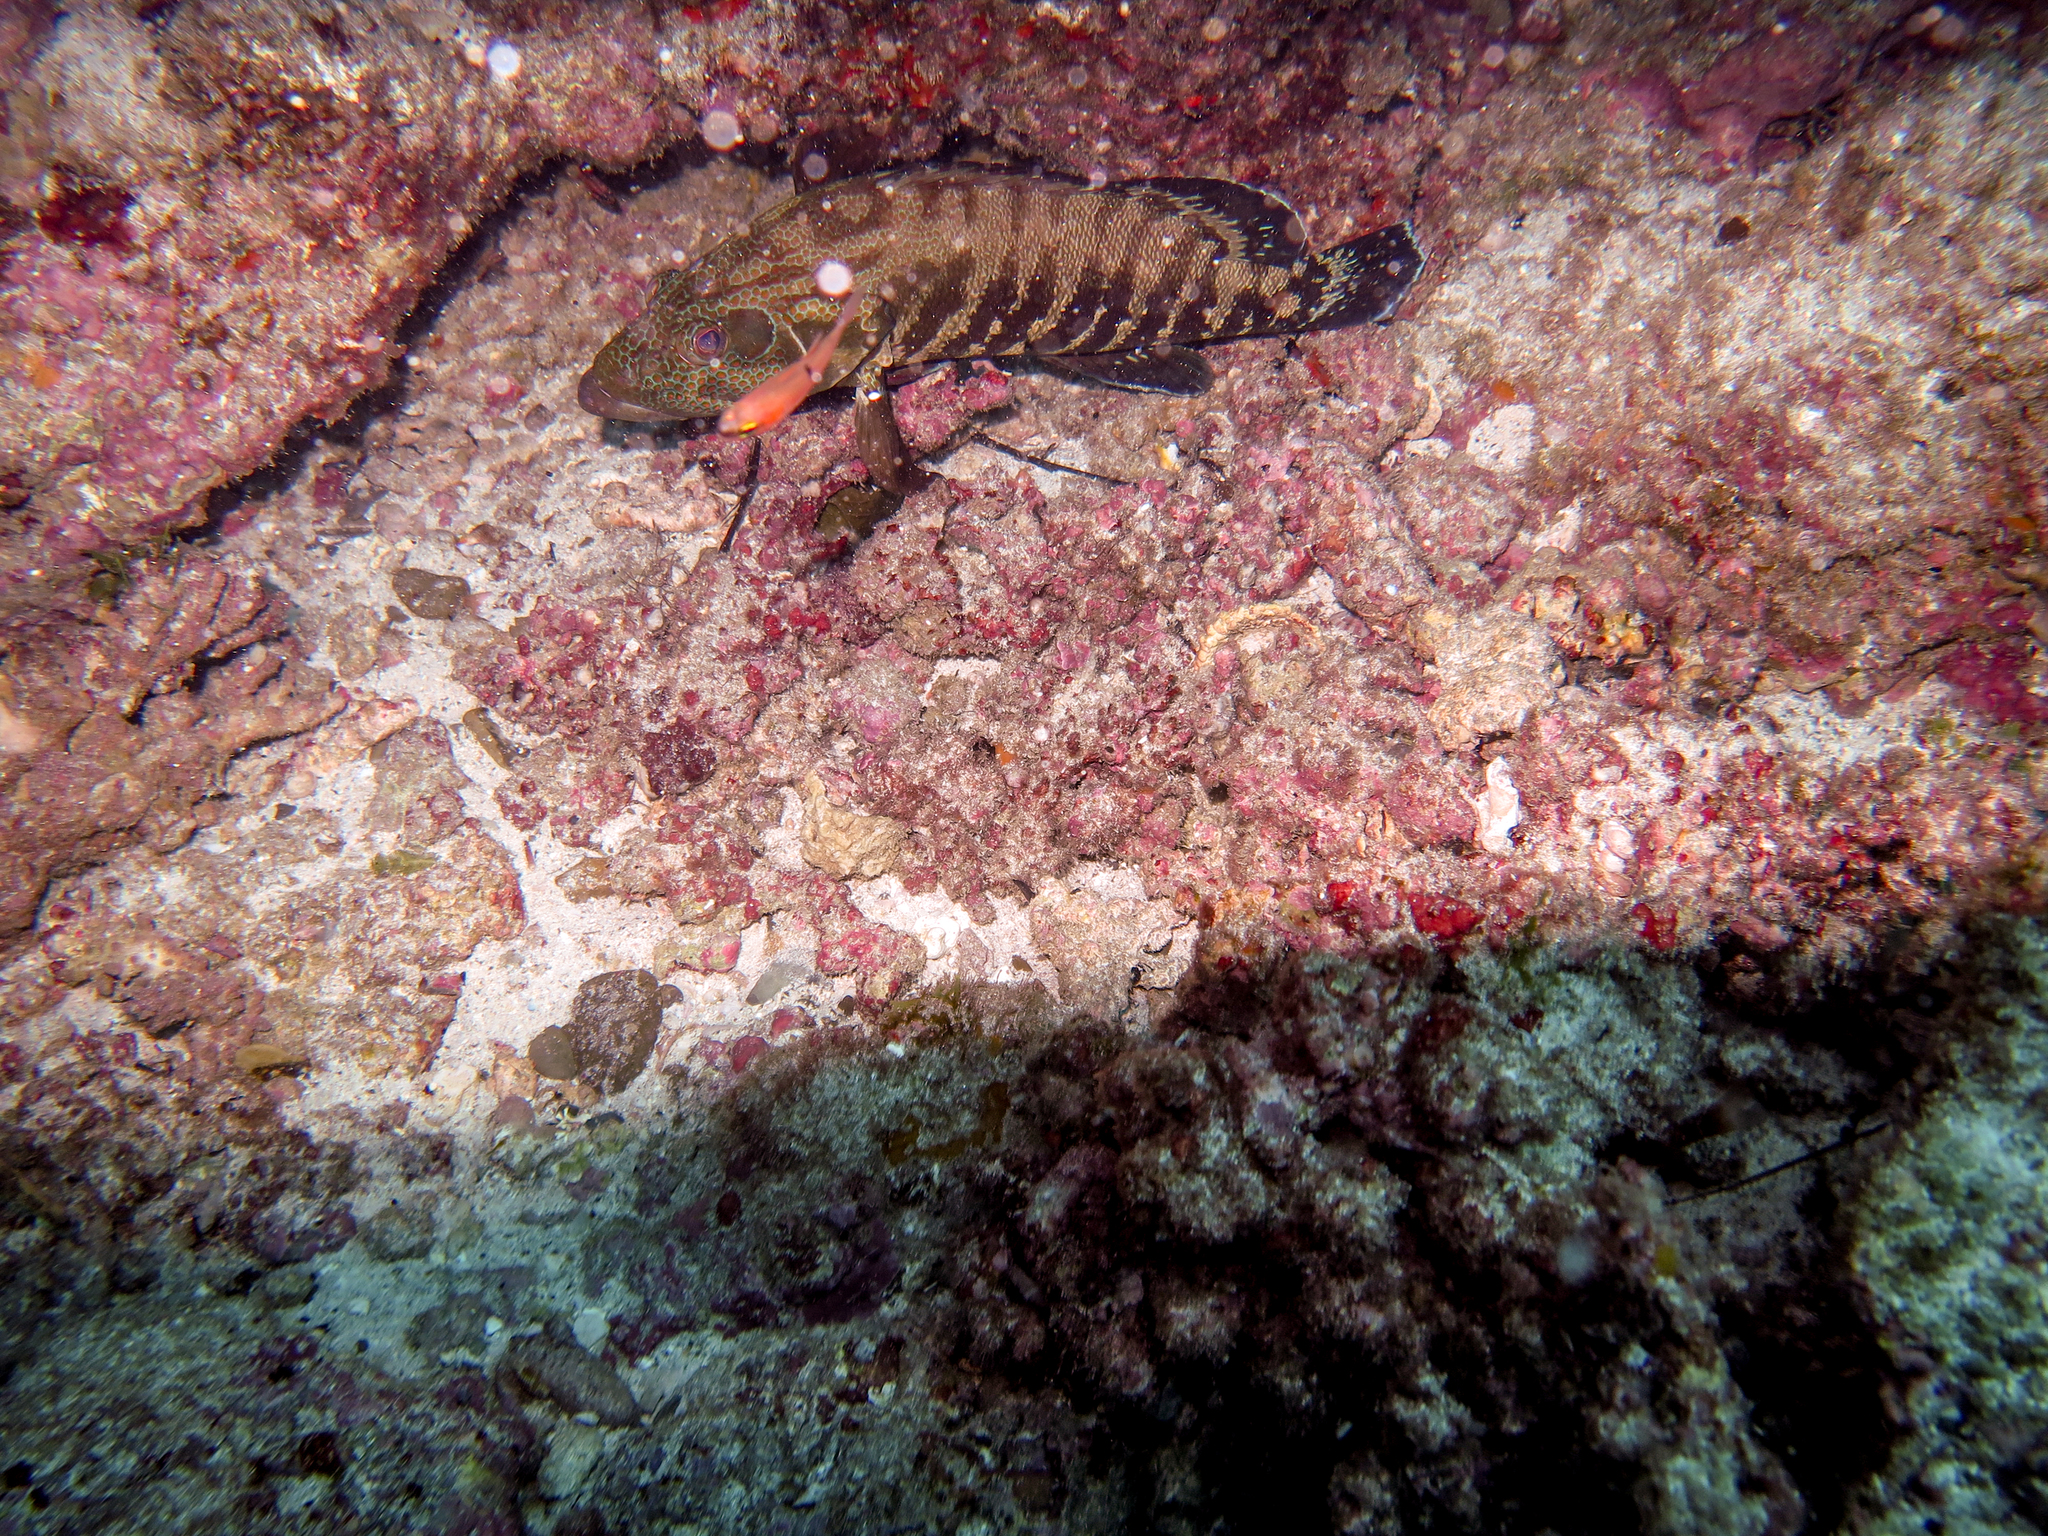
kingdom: Animalia
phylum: Chordata
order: Perciformes
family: Serranidae
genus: Cephalopholis
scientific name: Cephalopholis panamensis
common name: Pacific graysby
